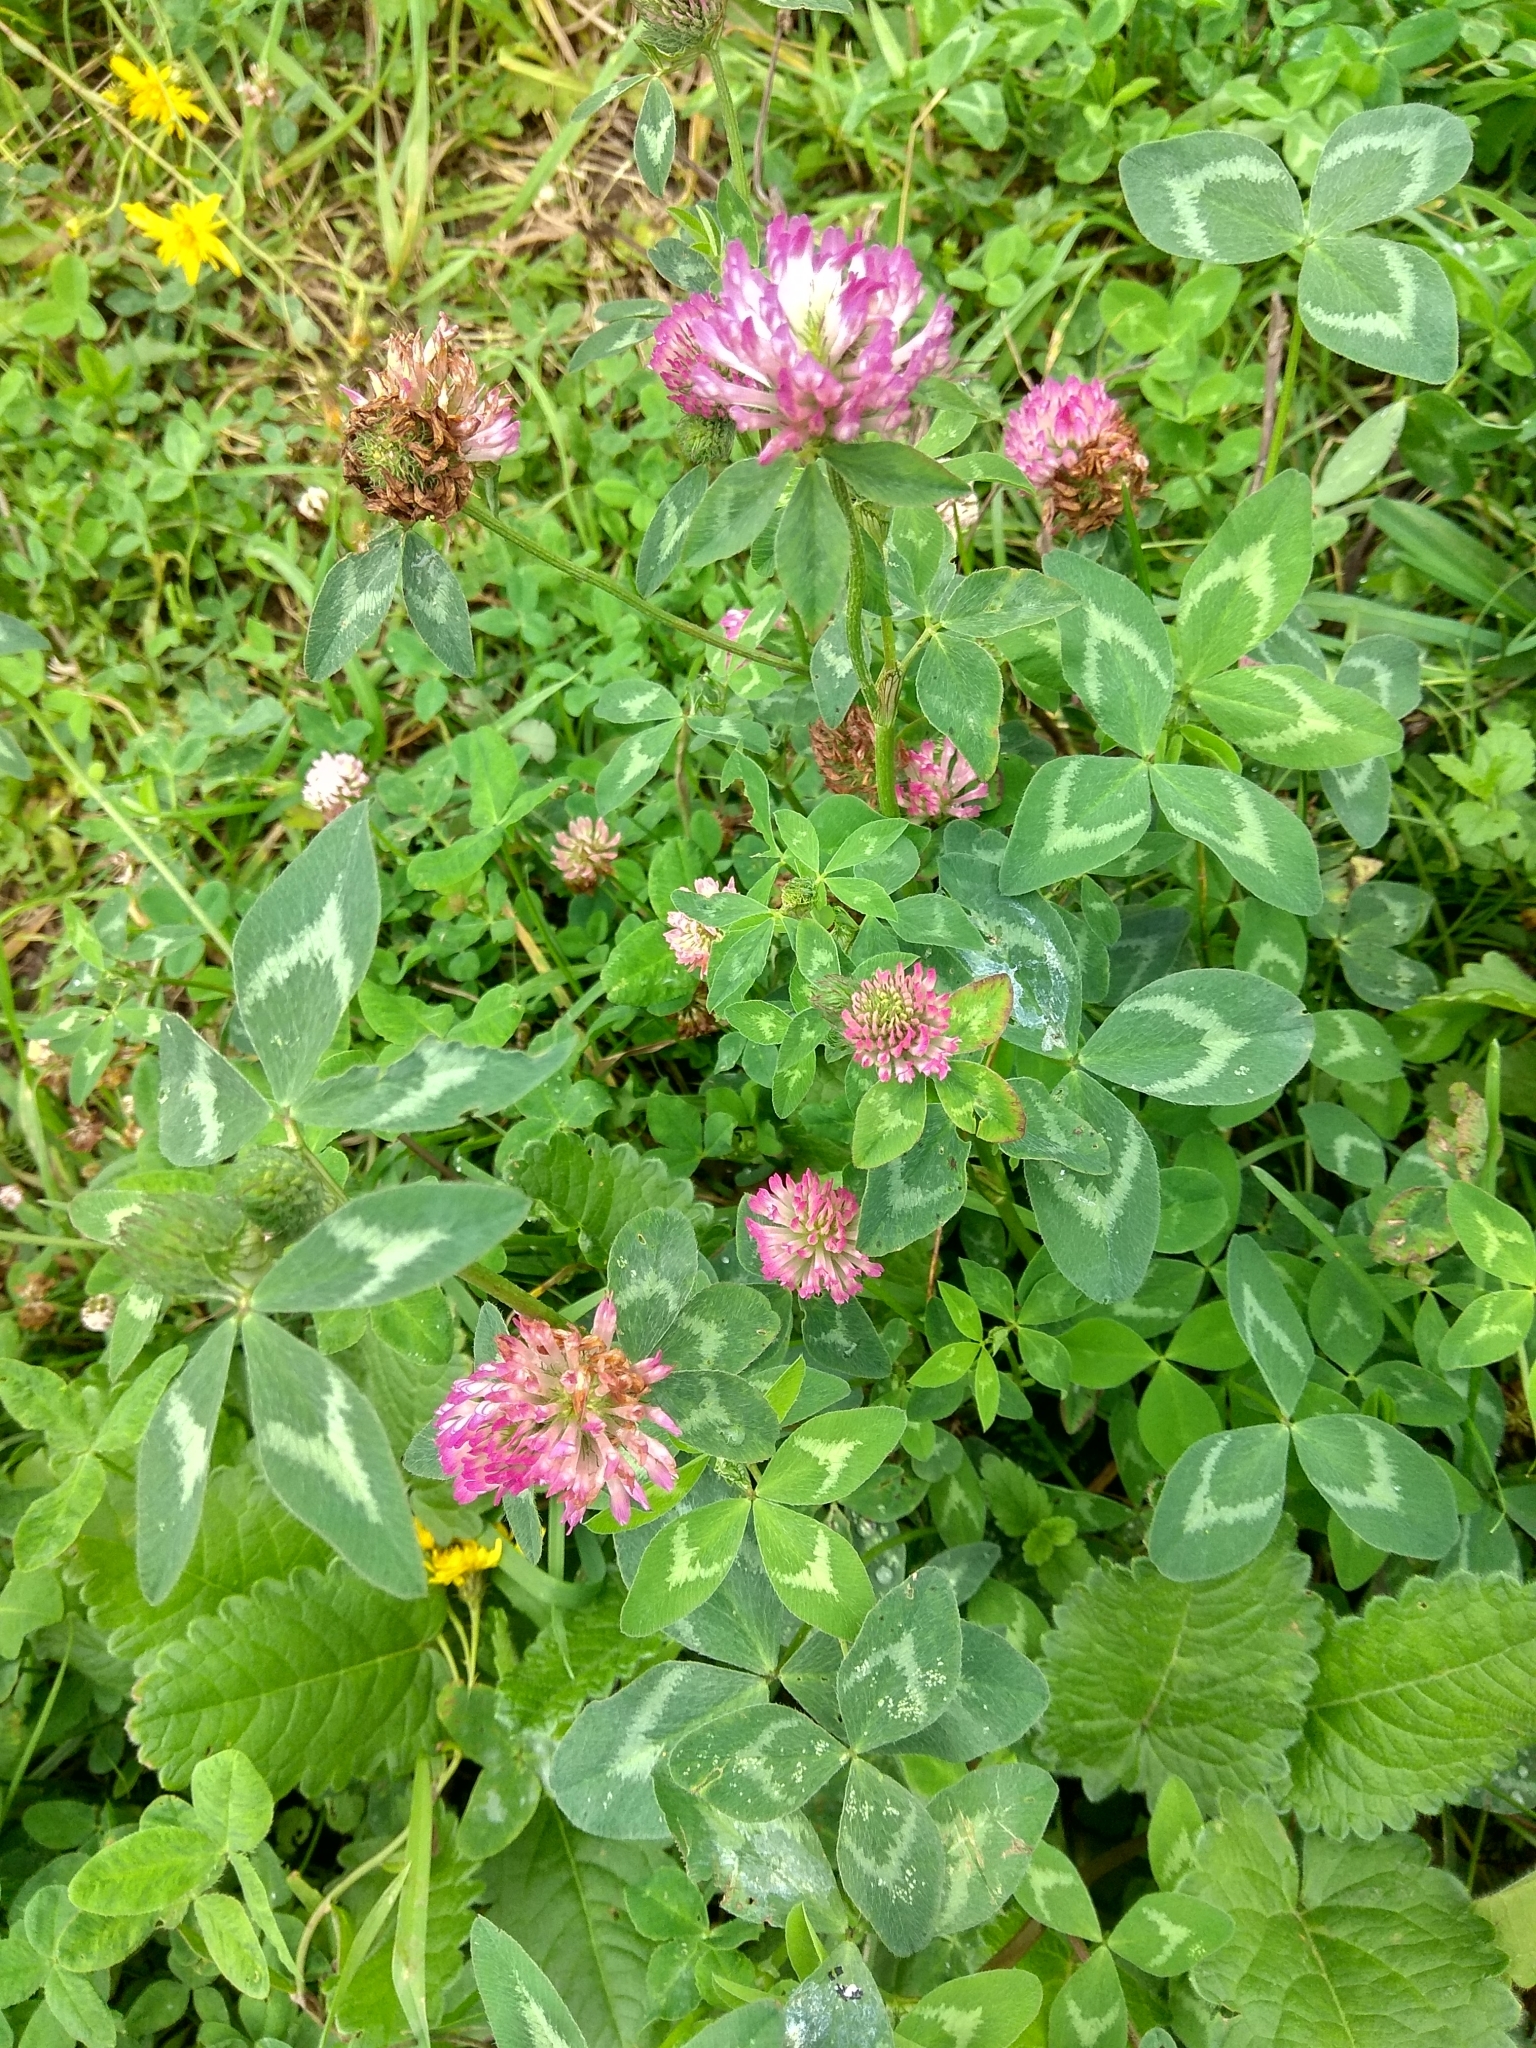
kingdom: Plantae
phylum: Tracheophyta
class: Magnoliopsida
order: Fabales
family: Fabaceae
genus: Trifolium
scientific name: Trifolium pratense
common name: Red clover
